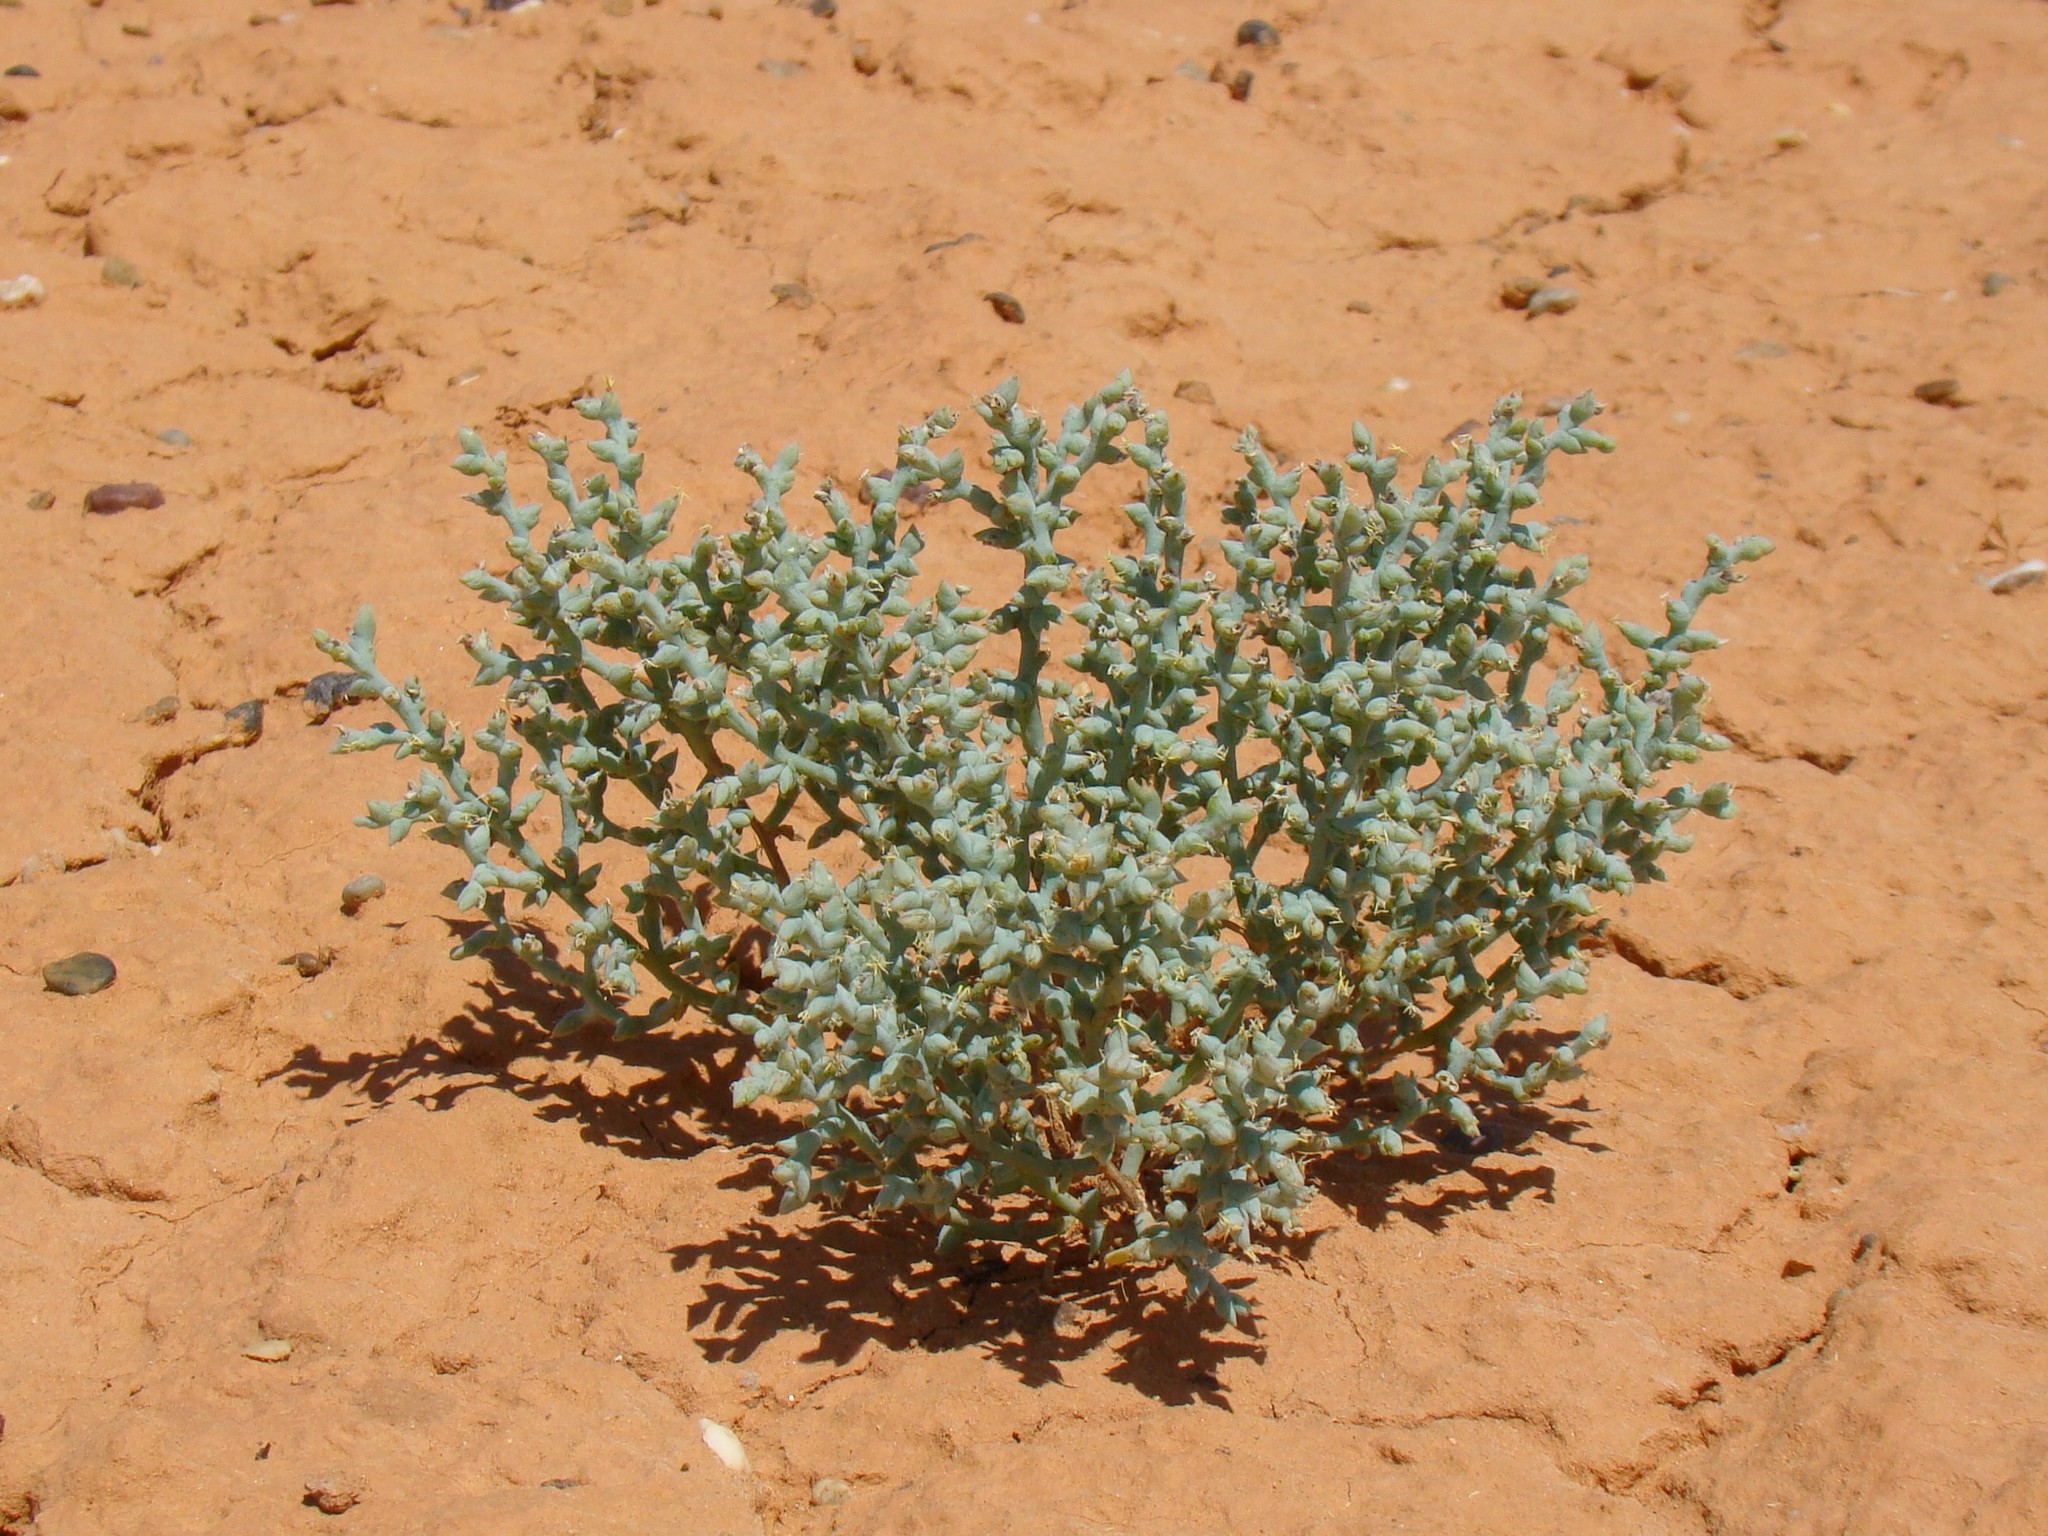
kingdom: Plantae
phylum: Tracheophyta
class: Magnoliopsida
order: Caryophyllales
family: Amaranthaceae
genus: Halimocnemis
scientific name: Halimocnemis karelinii
